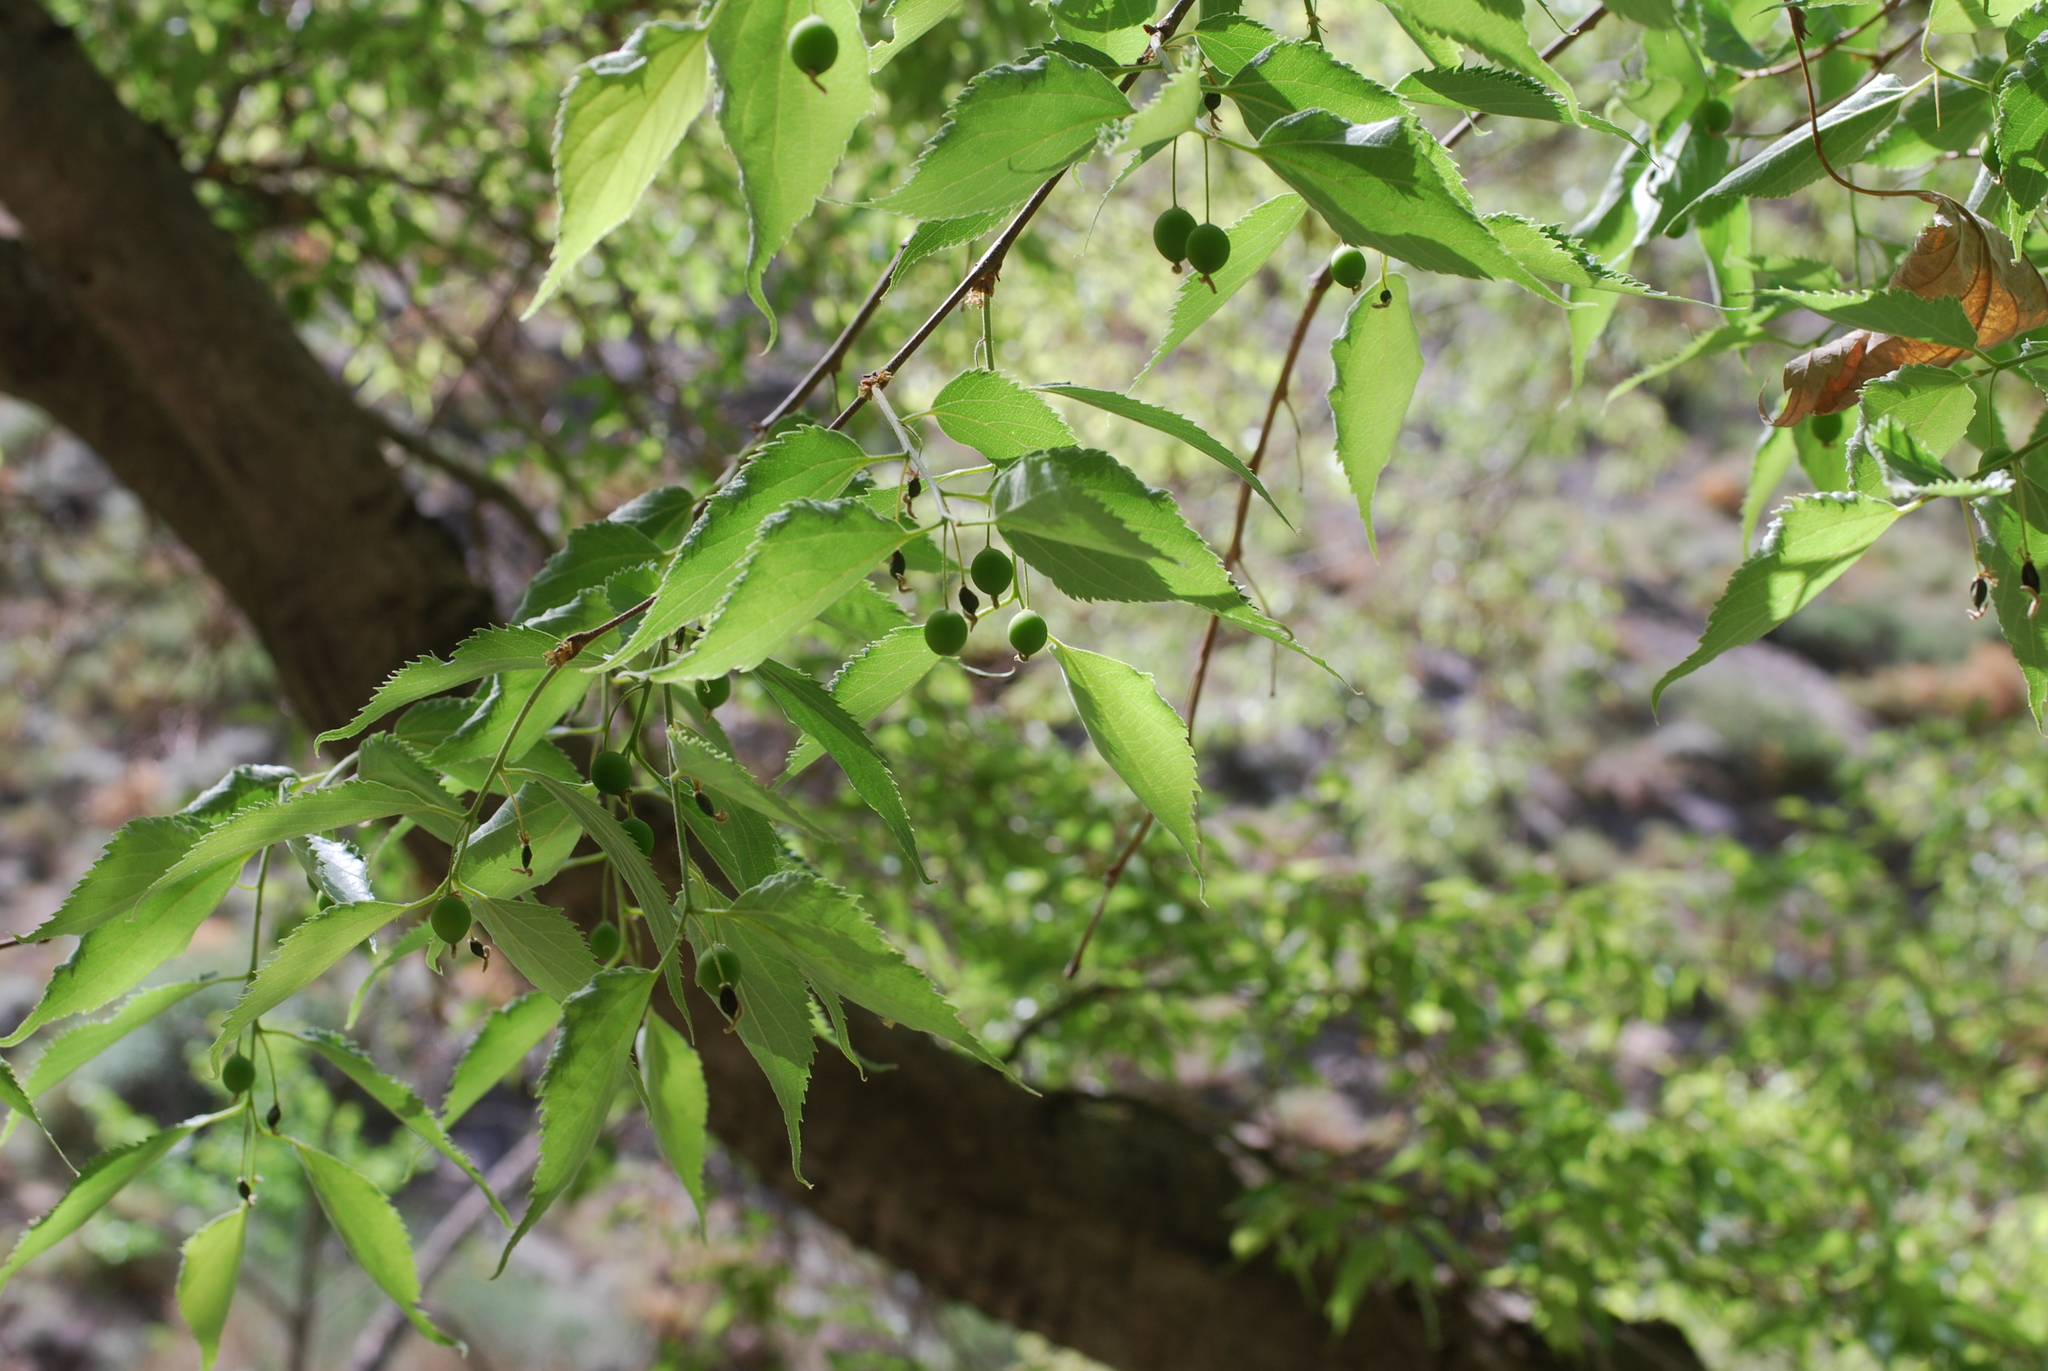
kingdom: Plantae
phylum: Tracheophyta
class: Magnoliopsida
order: Rosales
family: Cannabaceae
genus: Celtis
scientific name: Celtis australis
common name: European hackberry
